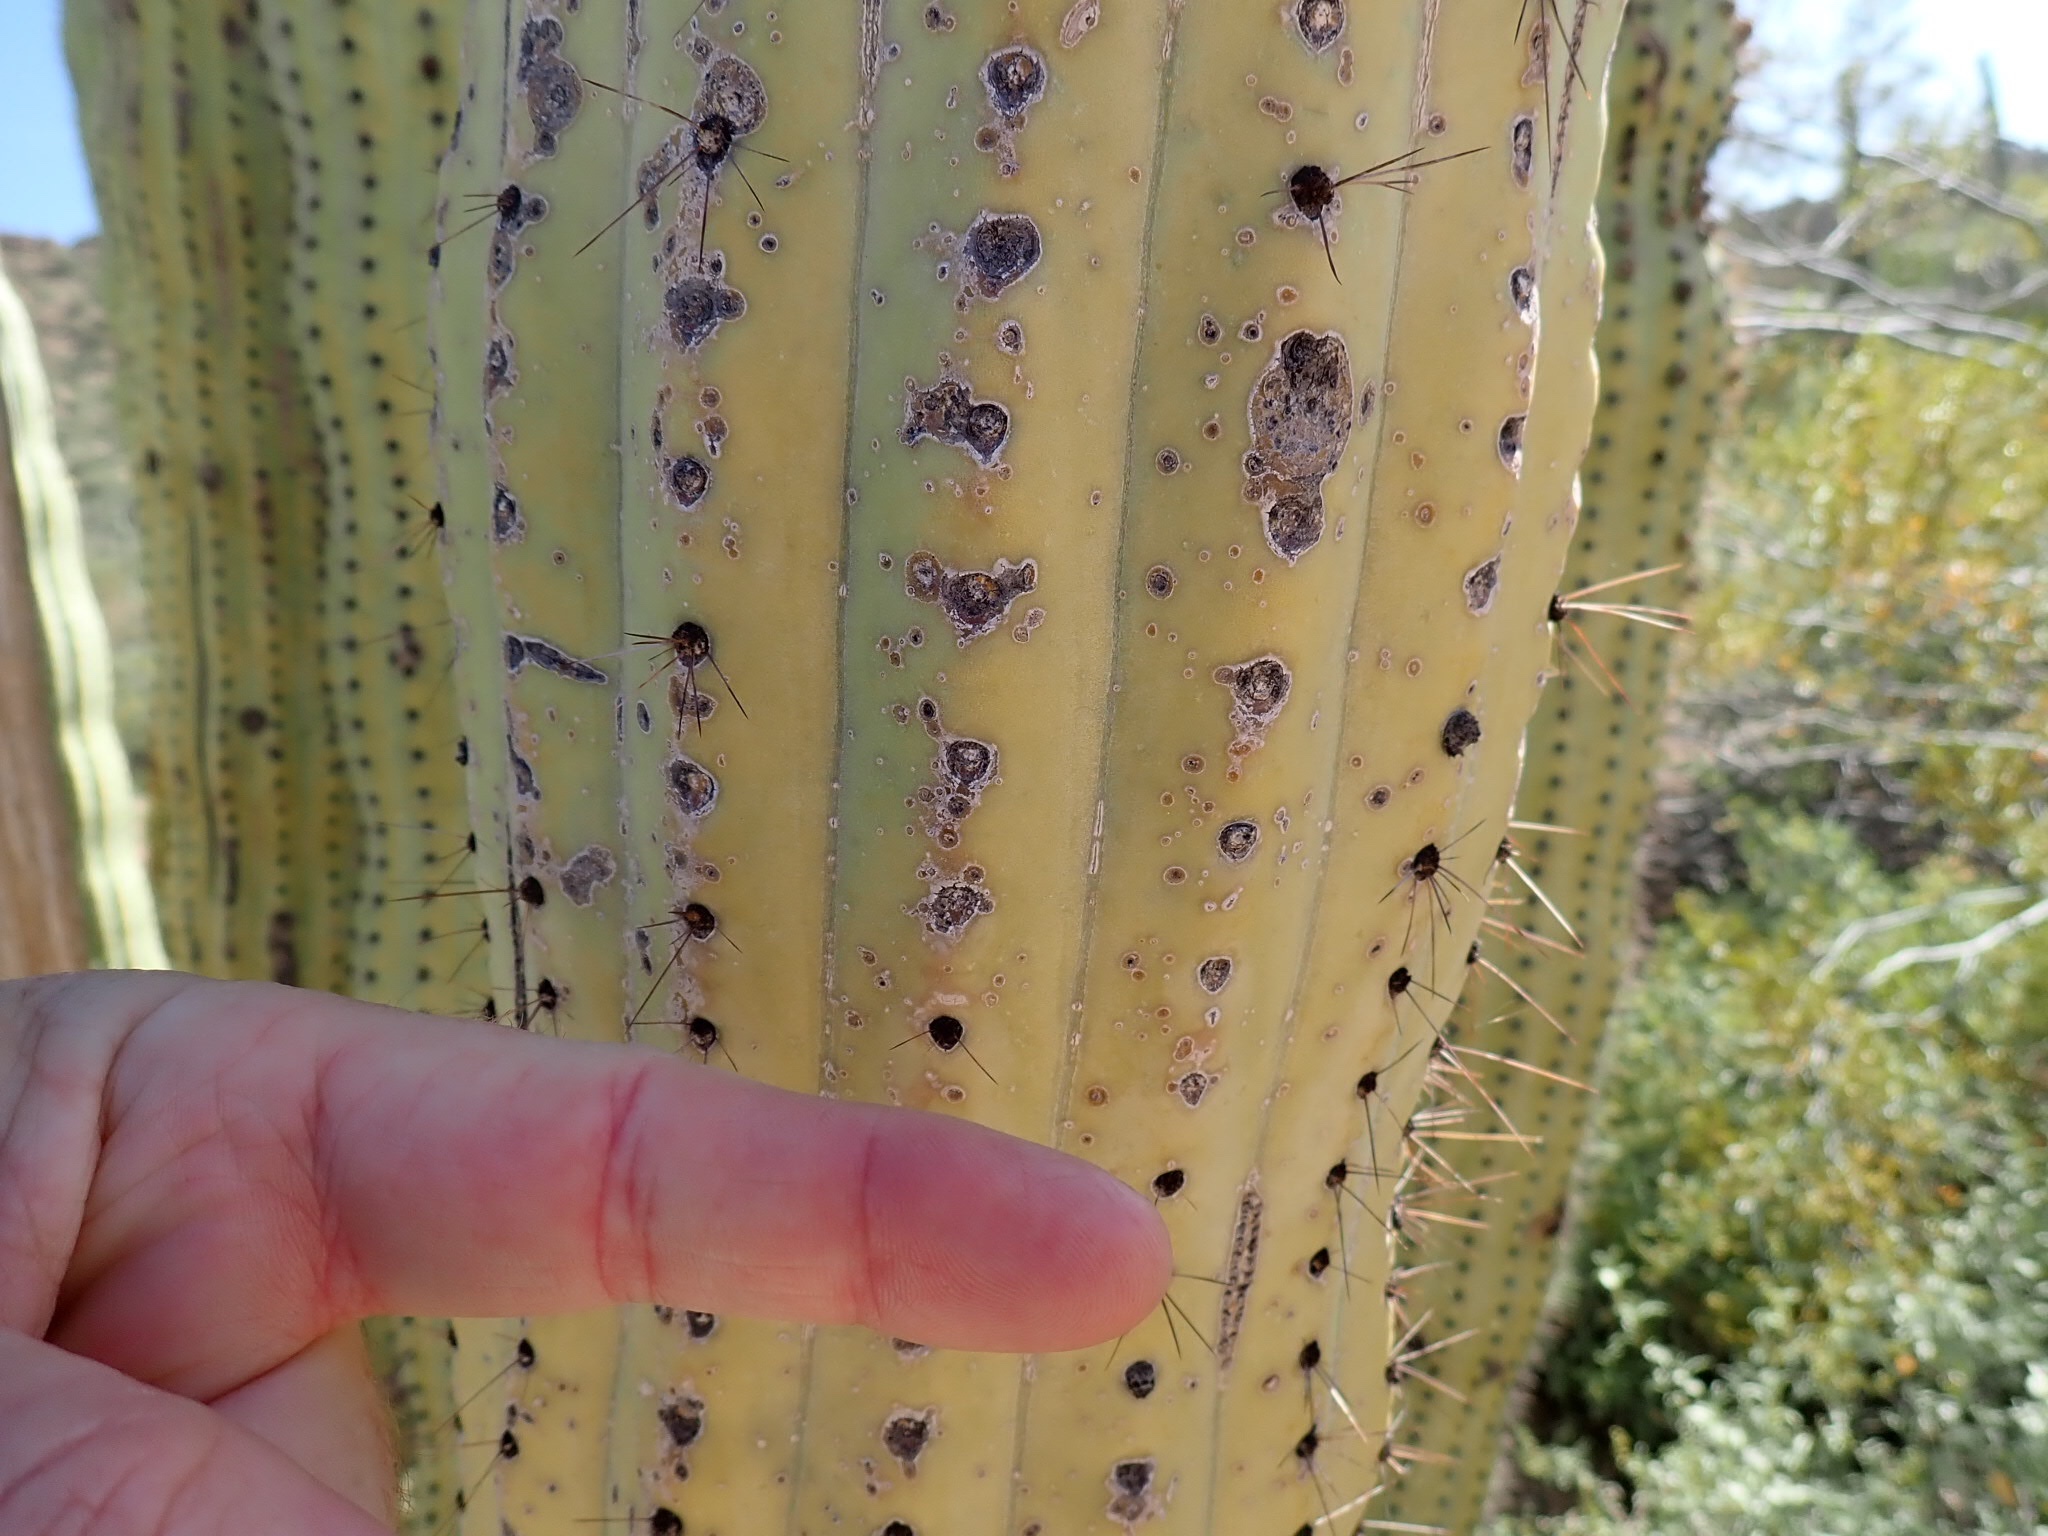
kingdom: Plantae
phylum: Tracheophyta
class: Magnoliopsida
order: Caryophyllales
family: Cactaceae
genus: Stenocereus
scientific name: Stenocereus thurberi
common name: Organ pipe cactus
